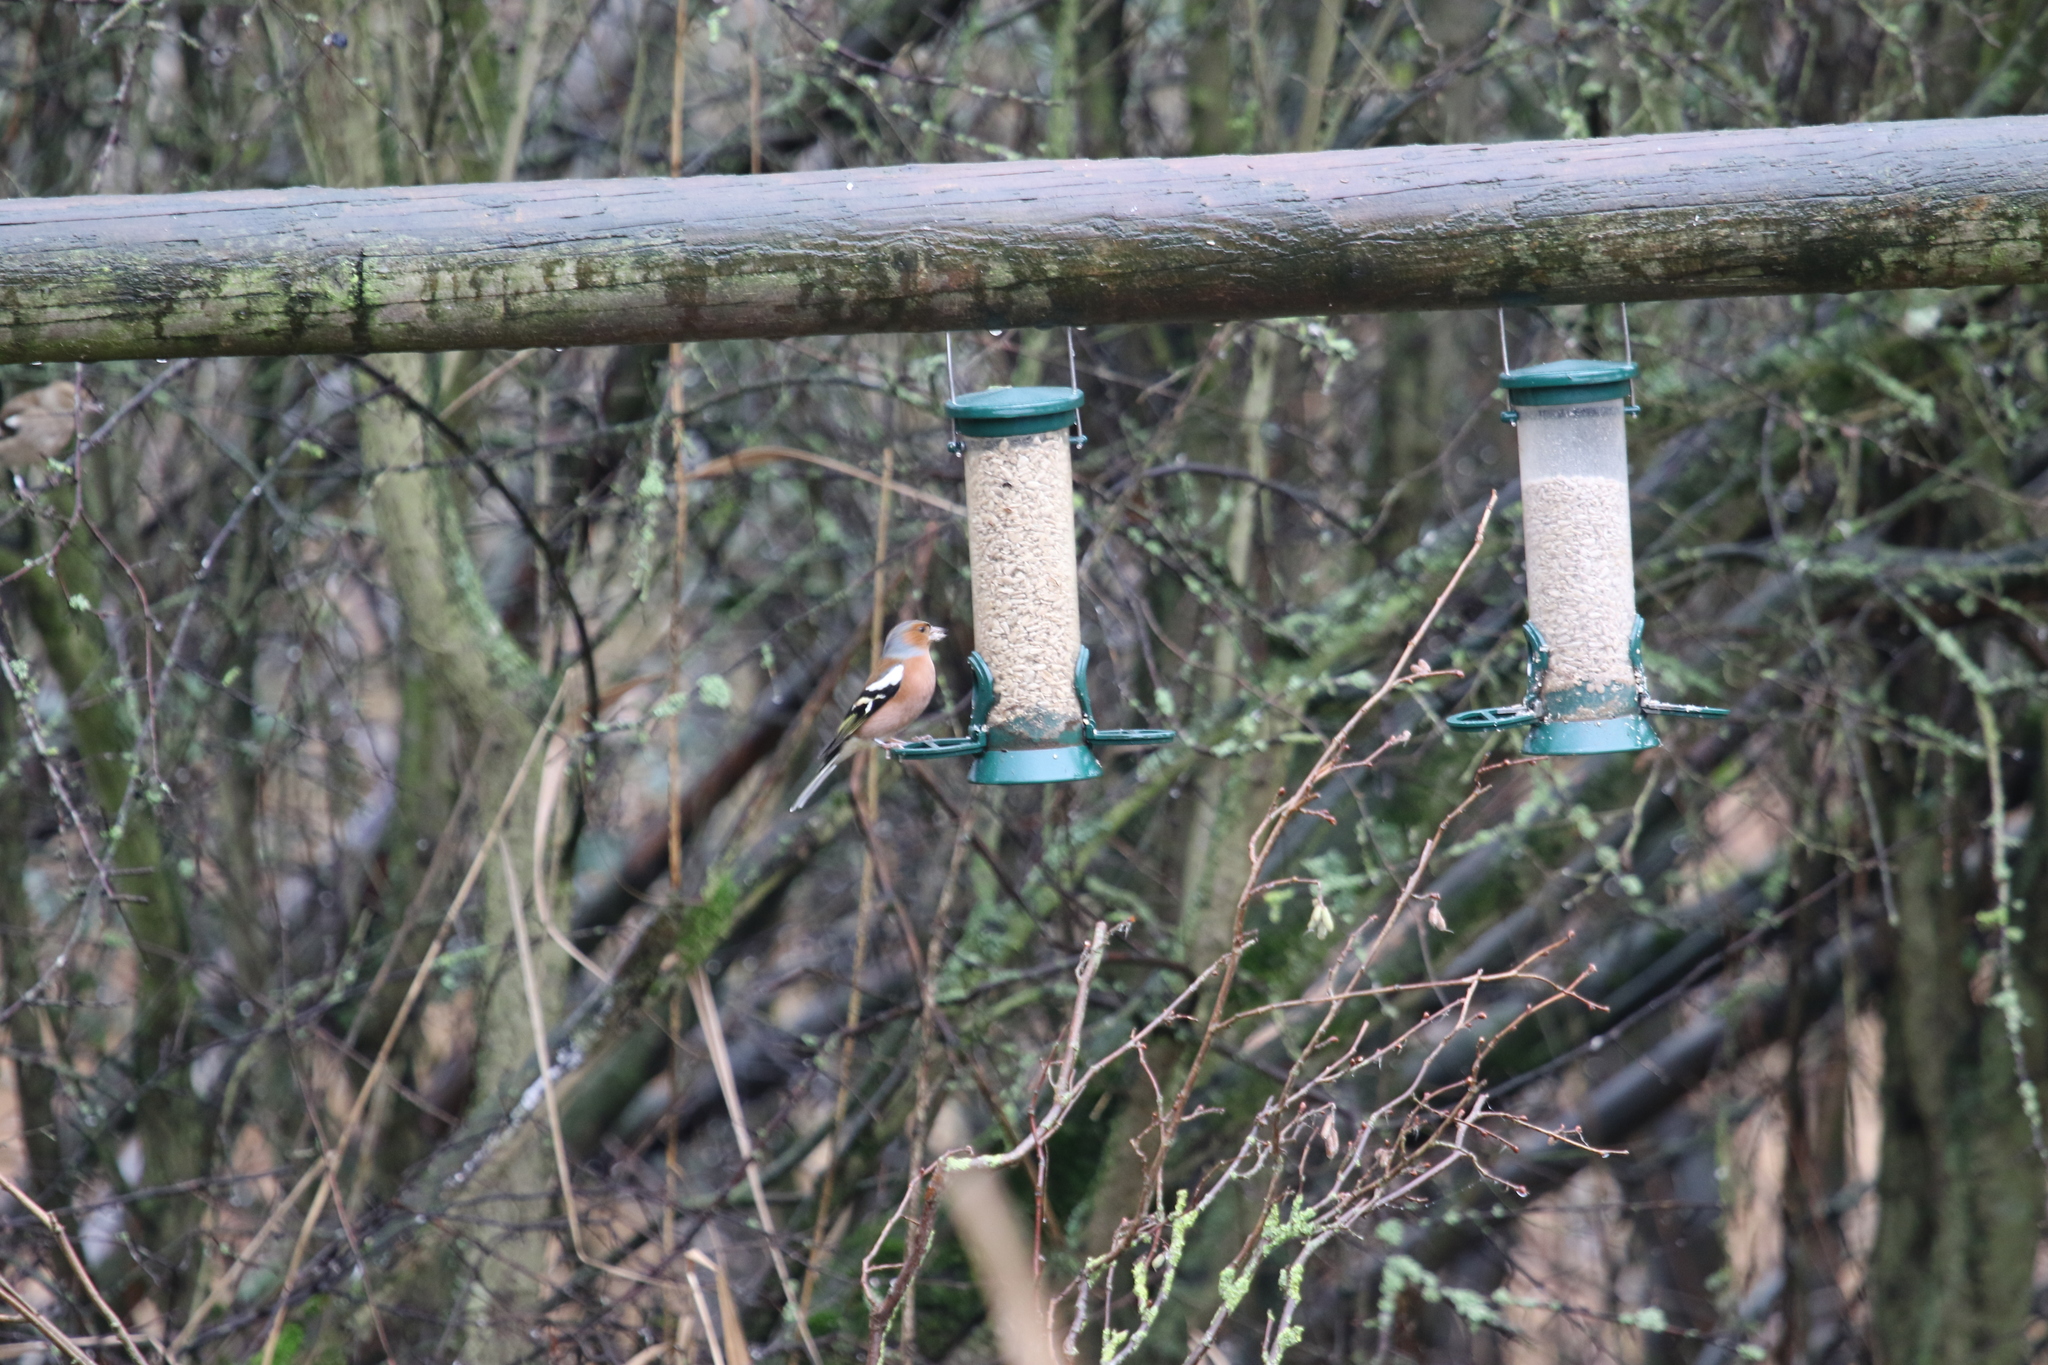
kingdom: Animalia
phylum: Chordata
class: Aves
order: Passeriformes
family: Fringillidae
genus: Fringilla
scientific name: Fringilla coelebs
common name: Common chaffinch
